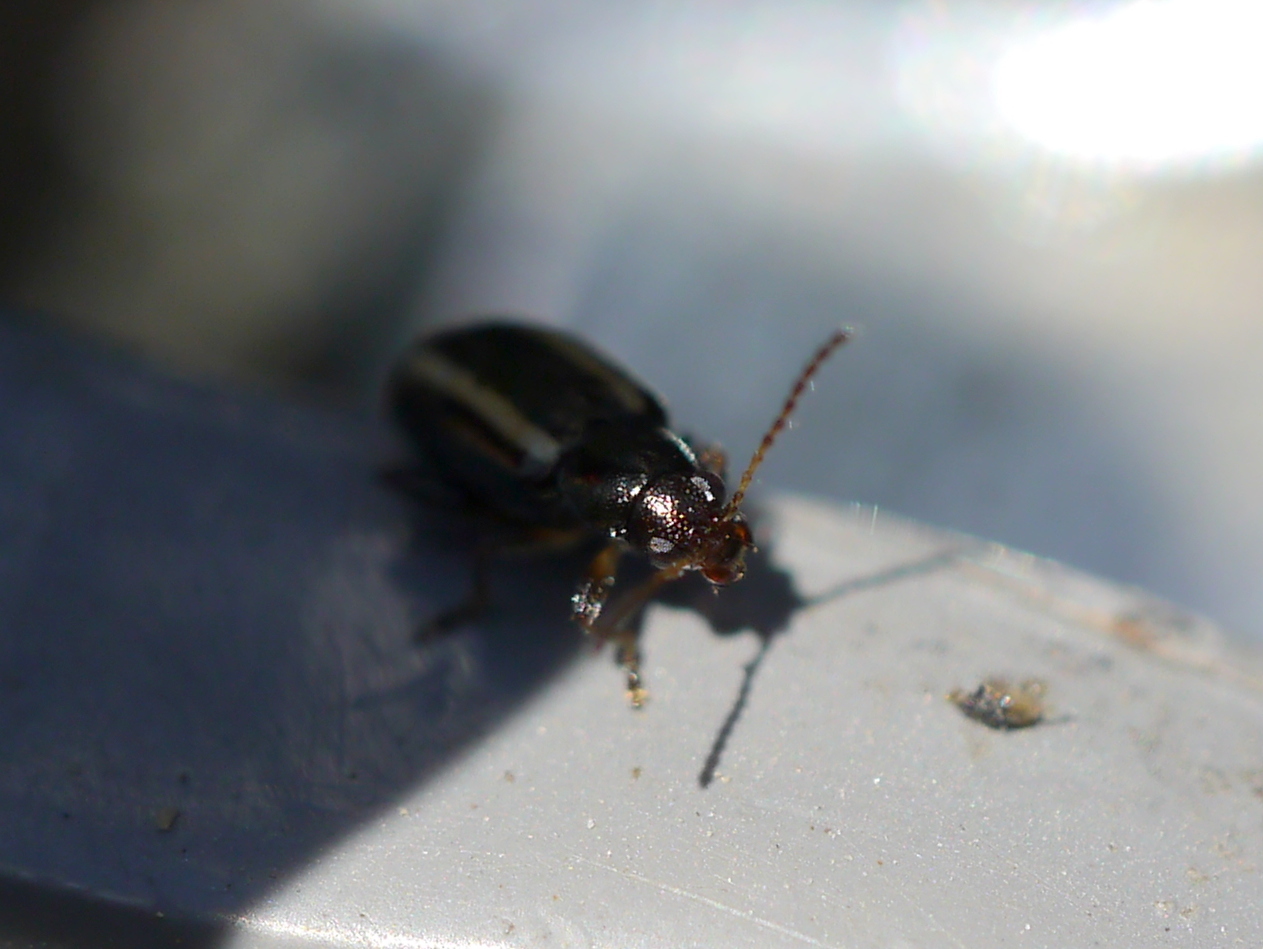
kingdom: Animalia
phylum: Arthropoda
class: Insecta
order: Coleoptera
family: Chrysomelidae
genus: Systena
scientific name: Systena elongata
